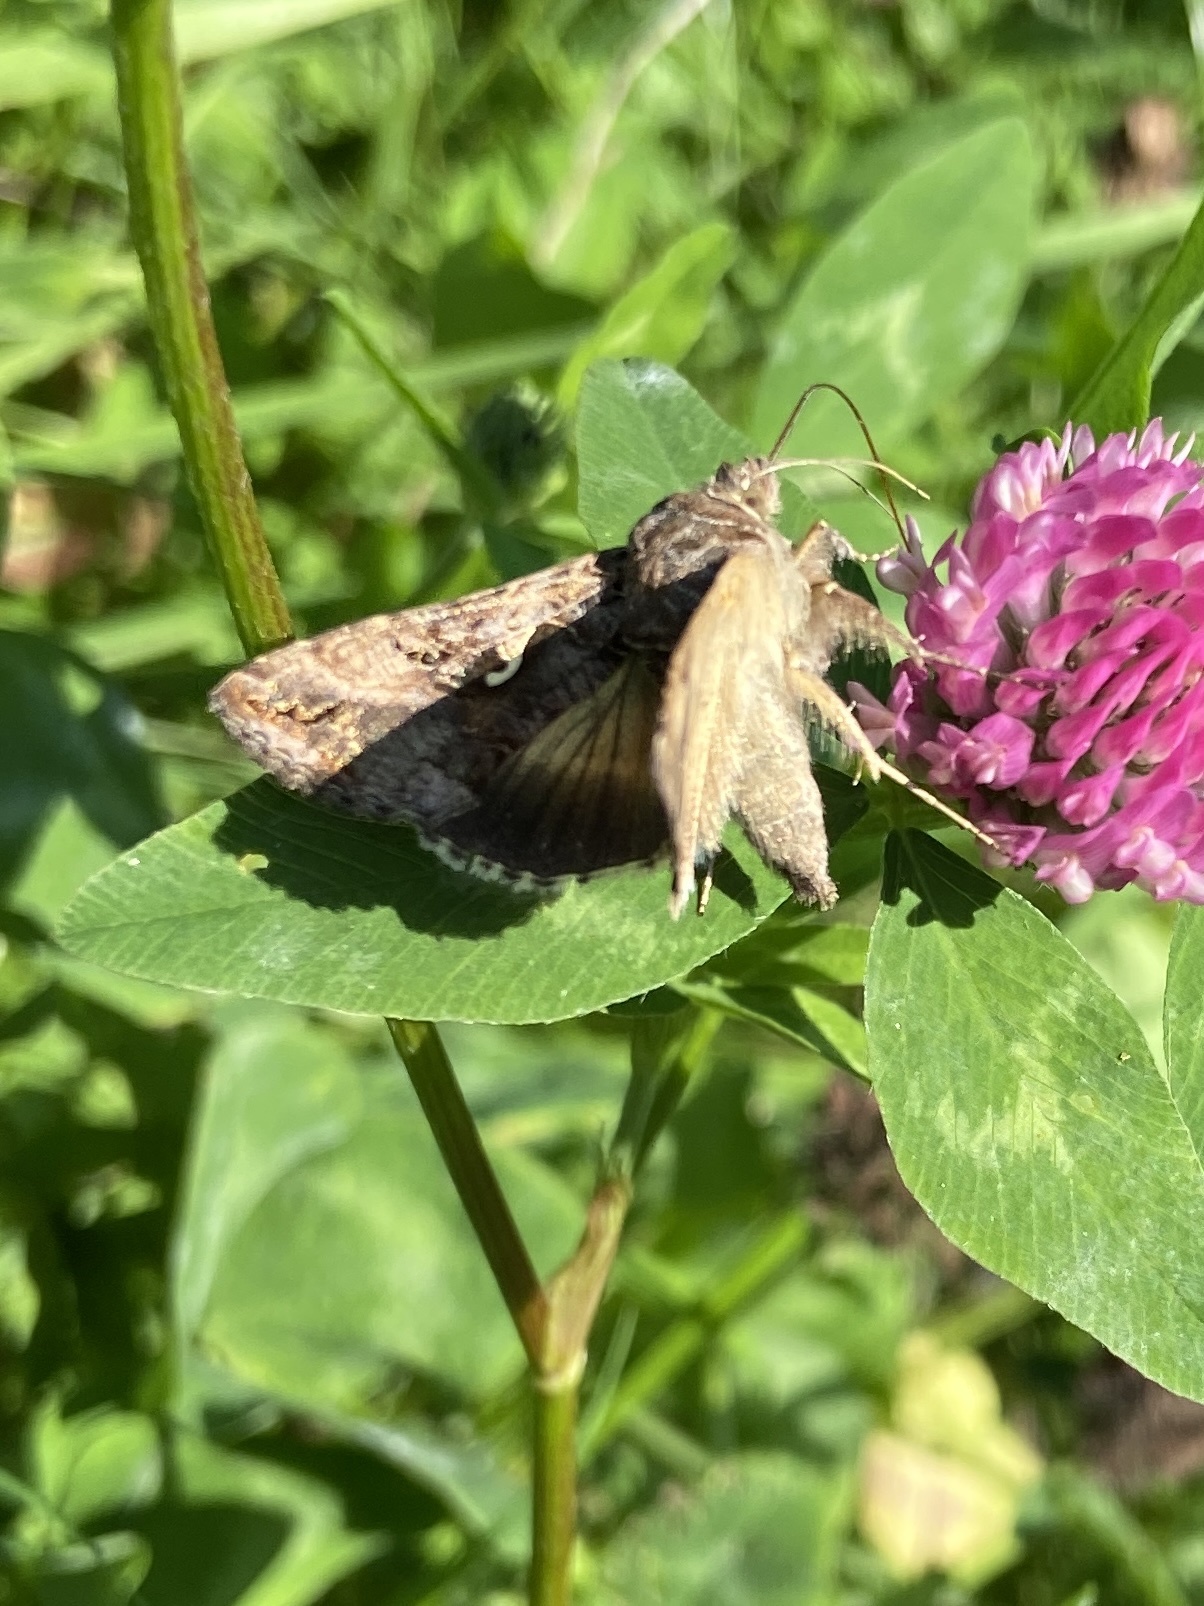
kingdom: Animalia
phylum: Arthropoda
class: Insecta
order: Lepidoptera
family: Noctuidae
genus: Autographa
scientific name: Autographa gamma
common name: Silver y
